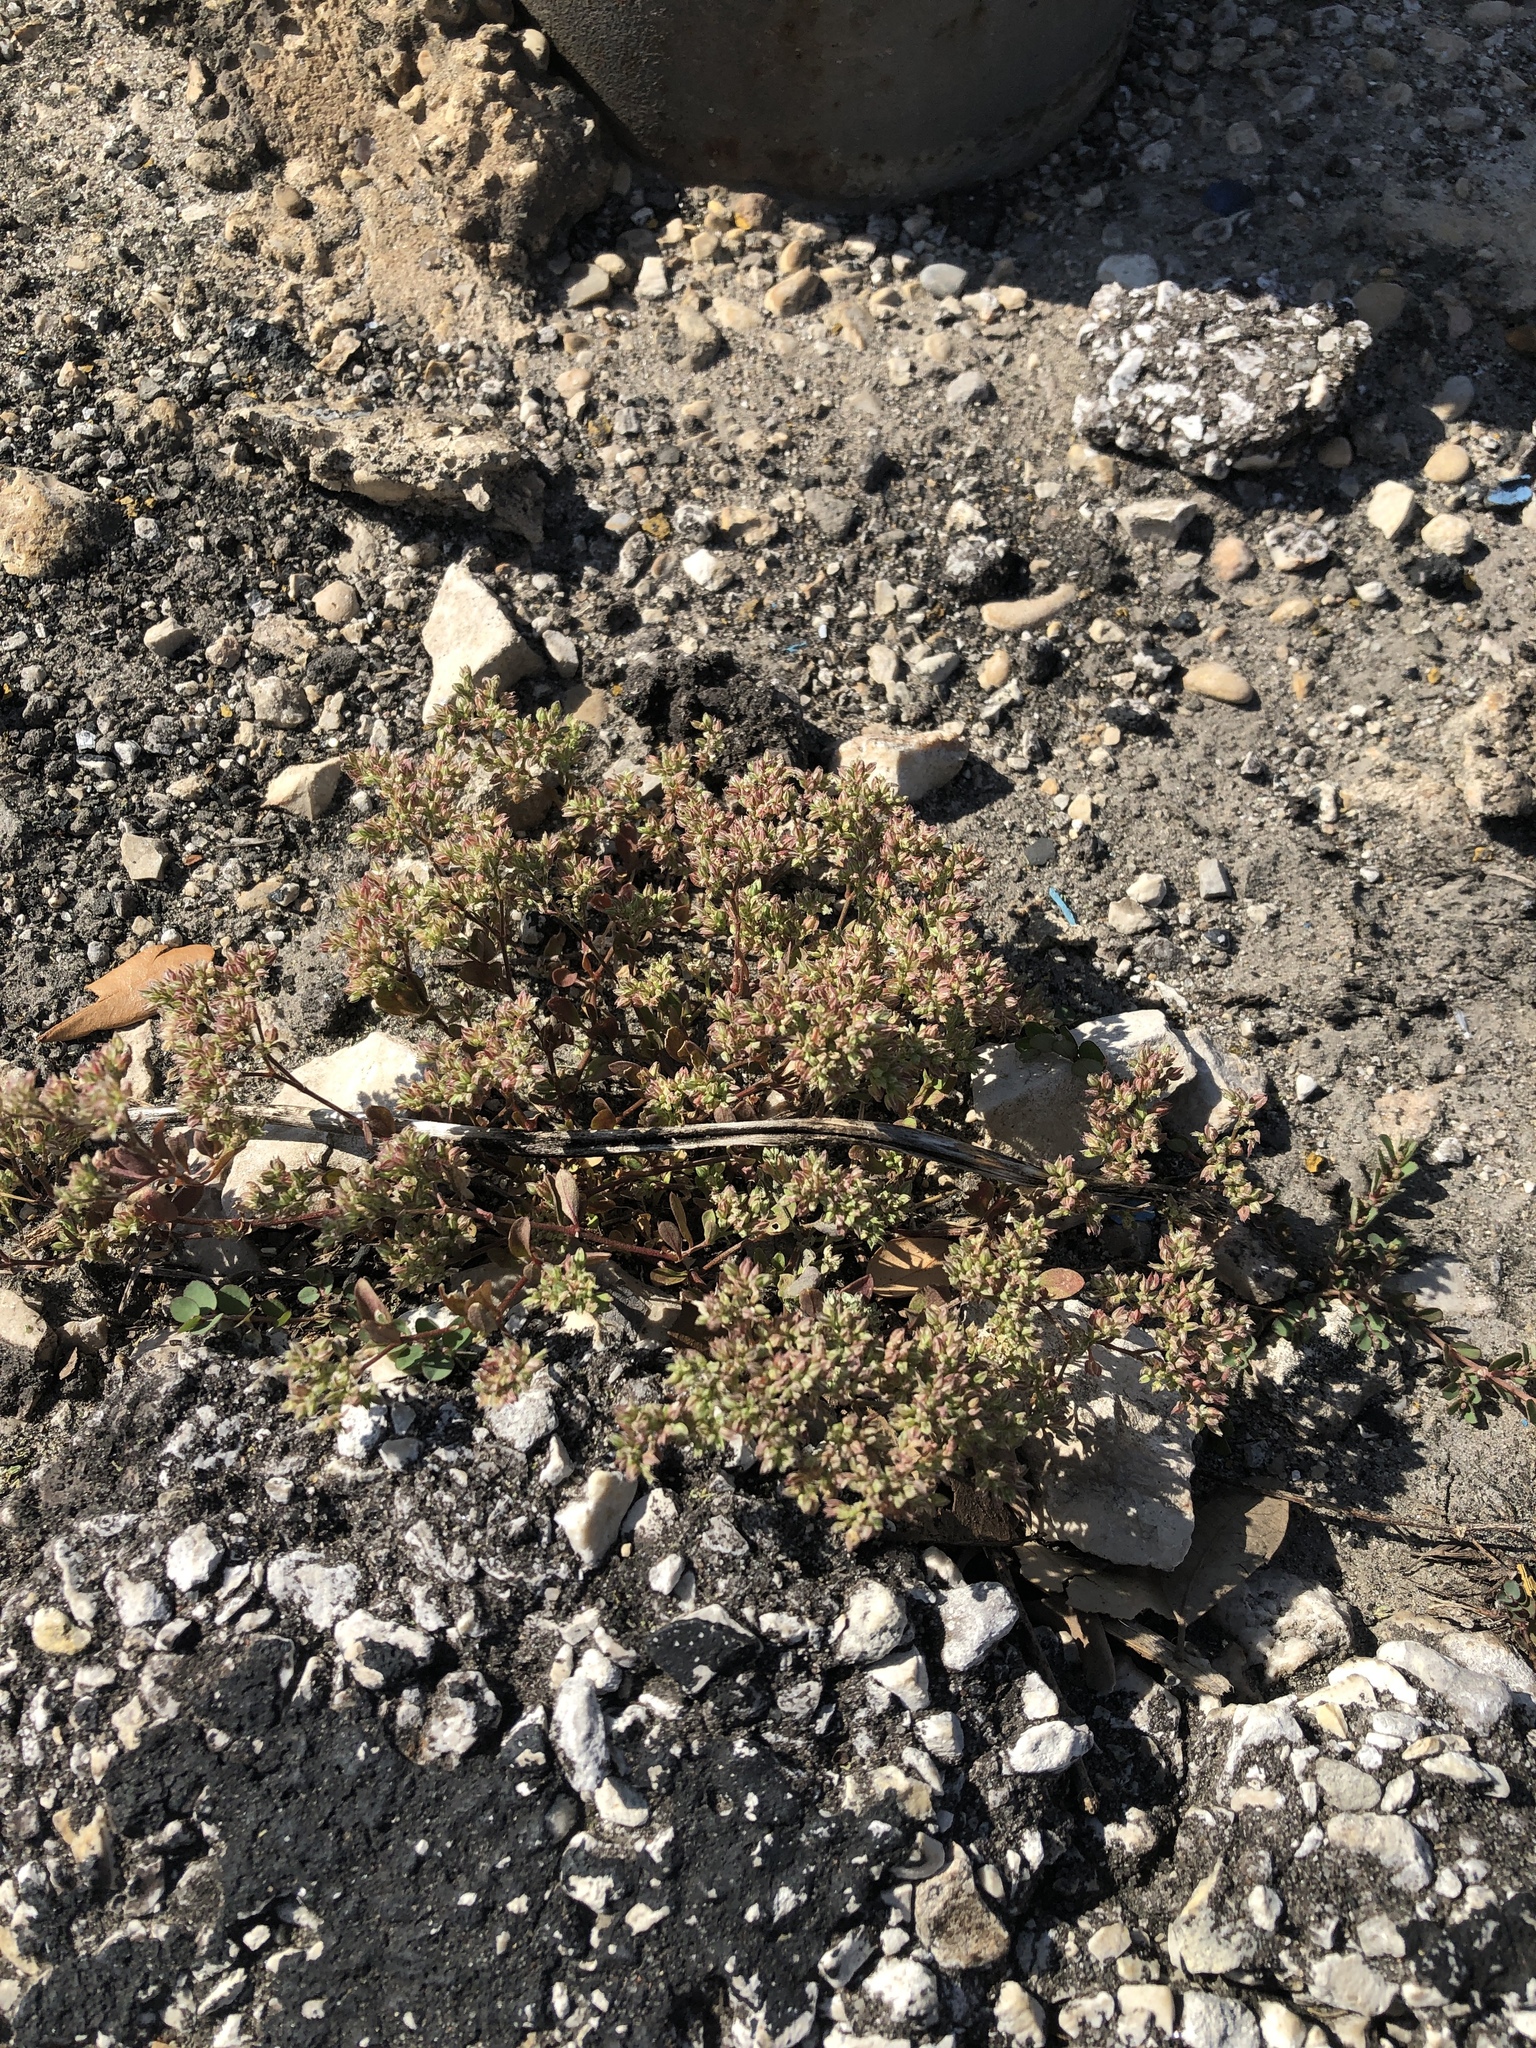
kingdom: Plantae
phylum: Tracheophyta
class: Magnoliopsida
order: Caryophyllales
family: Caryophyllaceae
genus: Polycarpon
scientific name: Polycarpon tetraphyllum
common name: Four-leaved all-seed
